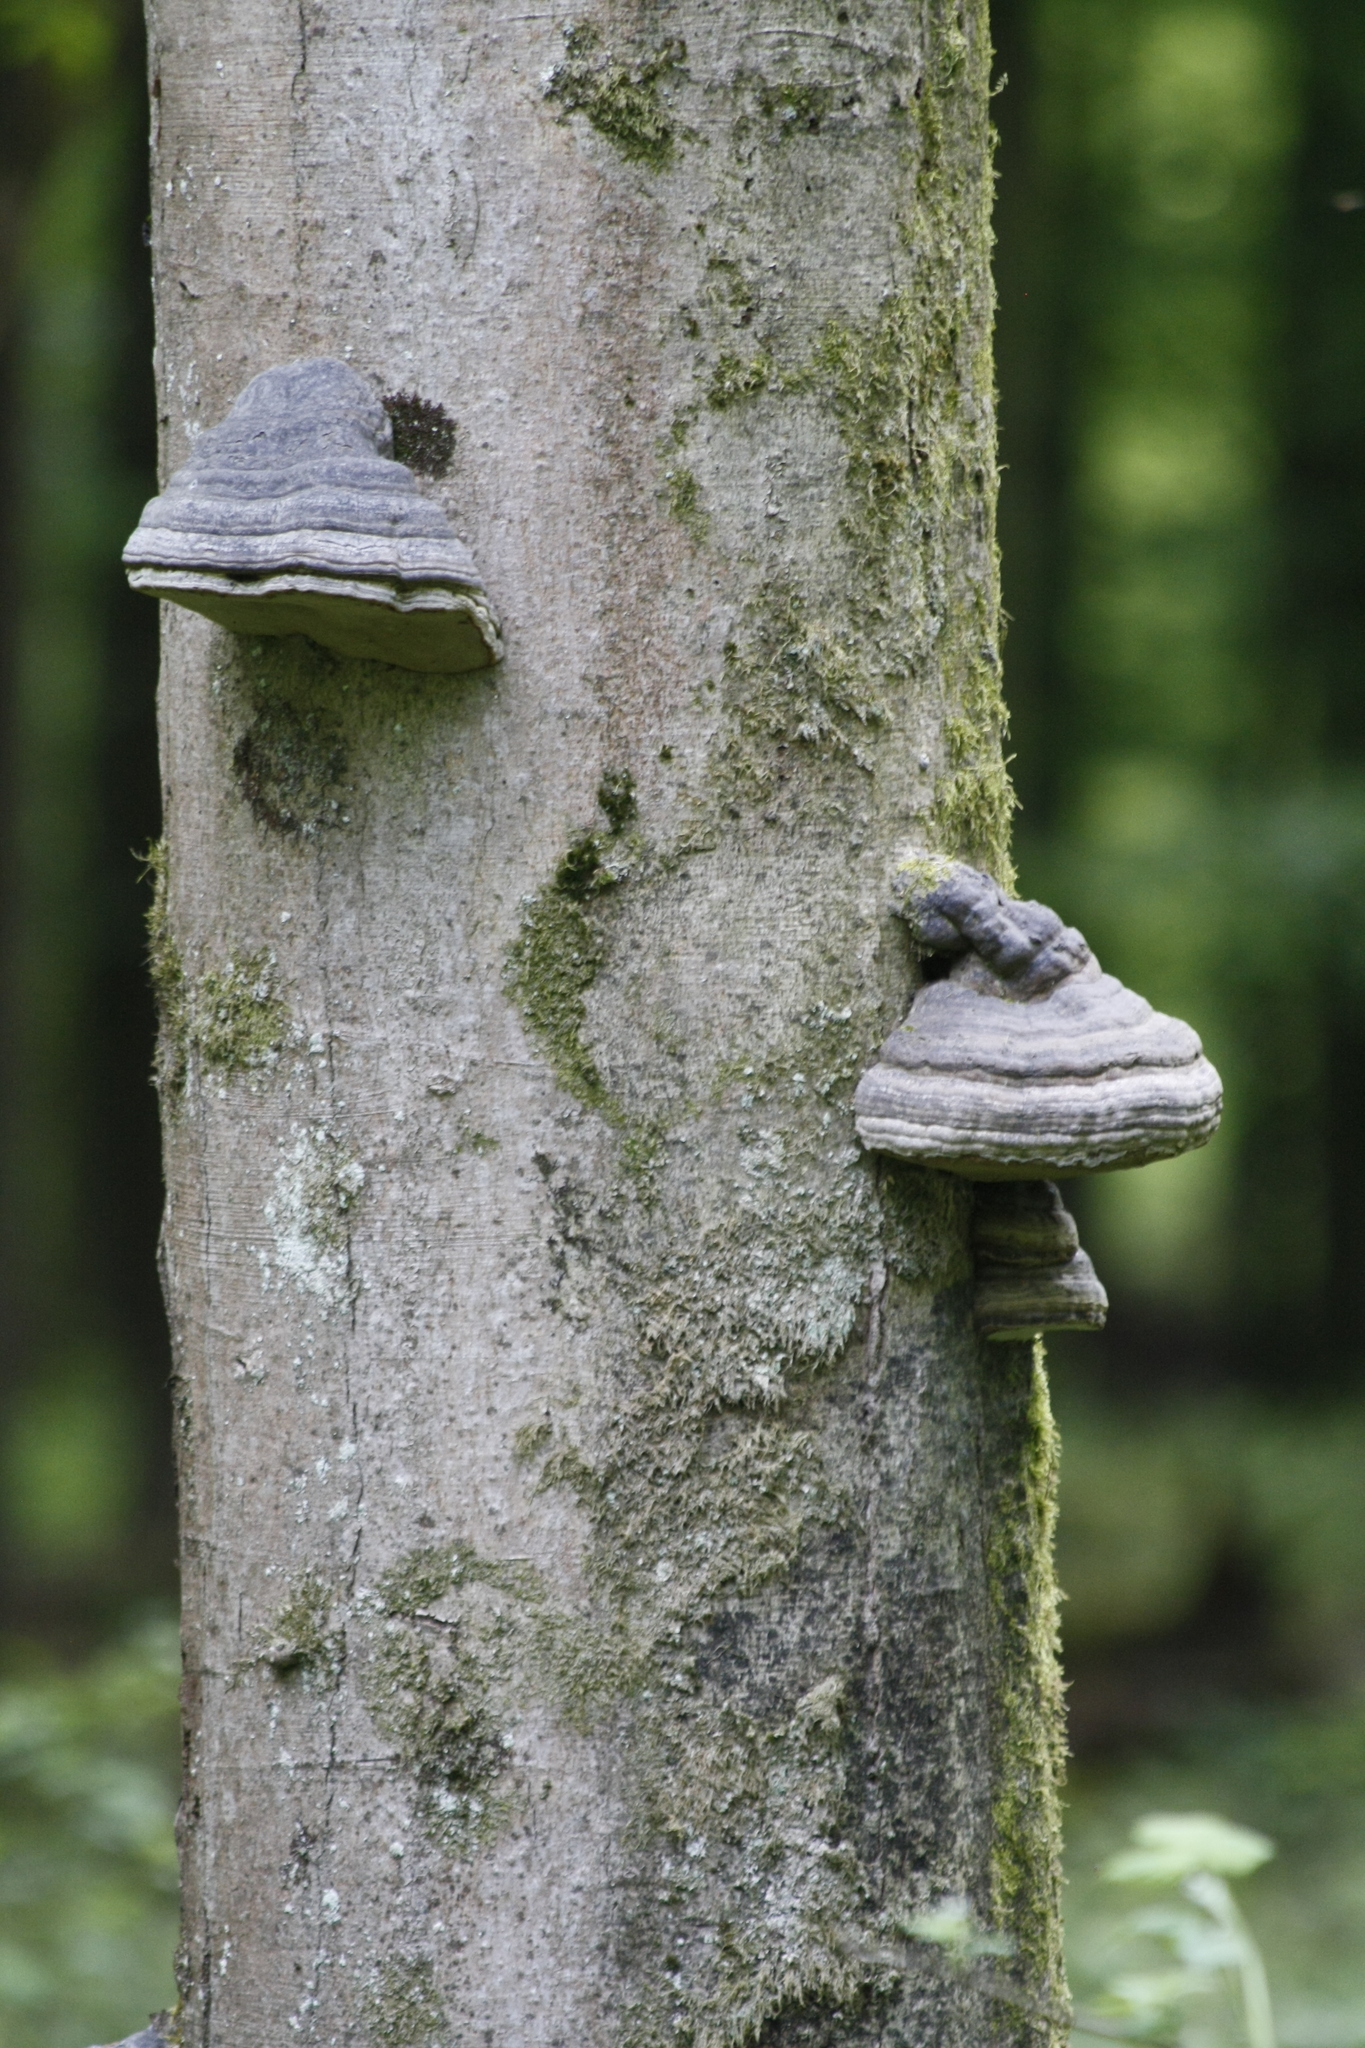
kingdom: Fungi
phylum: Basidiomycota
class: Agaricomycetes
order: Polyporales
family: Polyporaceae
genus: Fomes
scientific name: Fomes fomentarius
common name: Hoof fungus
